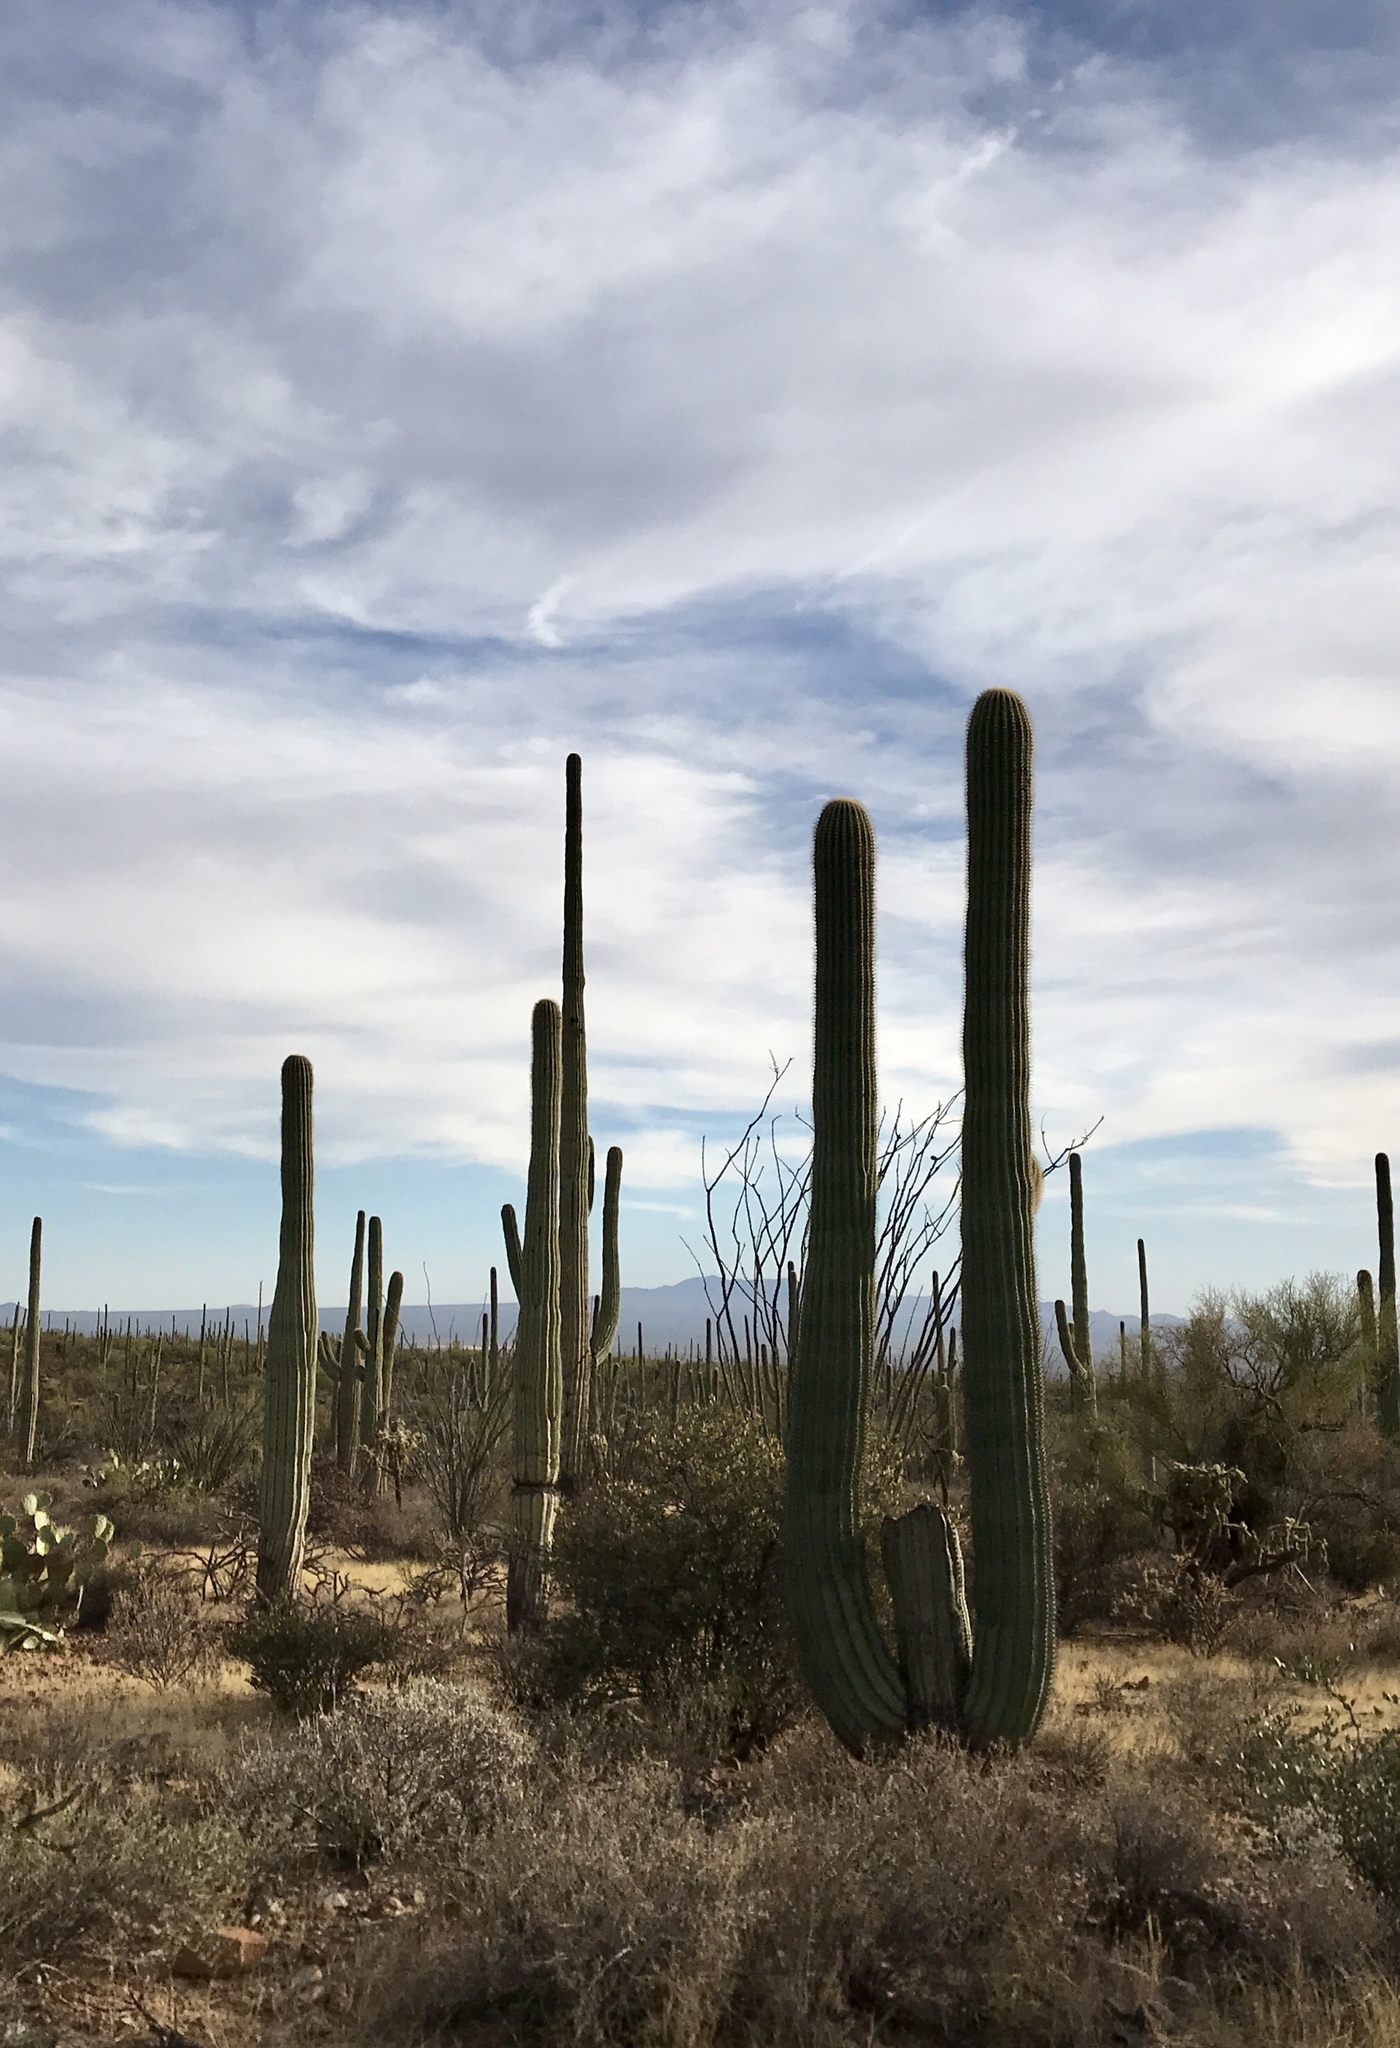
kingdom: Plantae
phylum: Tracheophyta
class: Magnoliopsida
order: Caryophyllales
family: Cactaceae
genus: Carnegiea
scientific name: Carnegiea gigantea
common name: Saguaro
